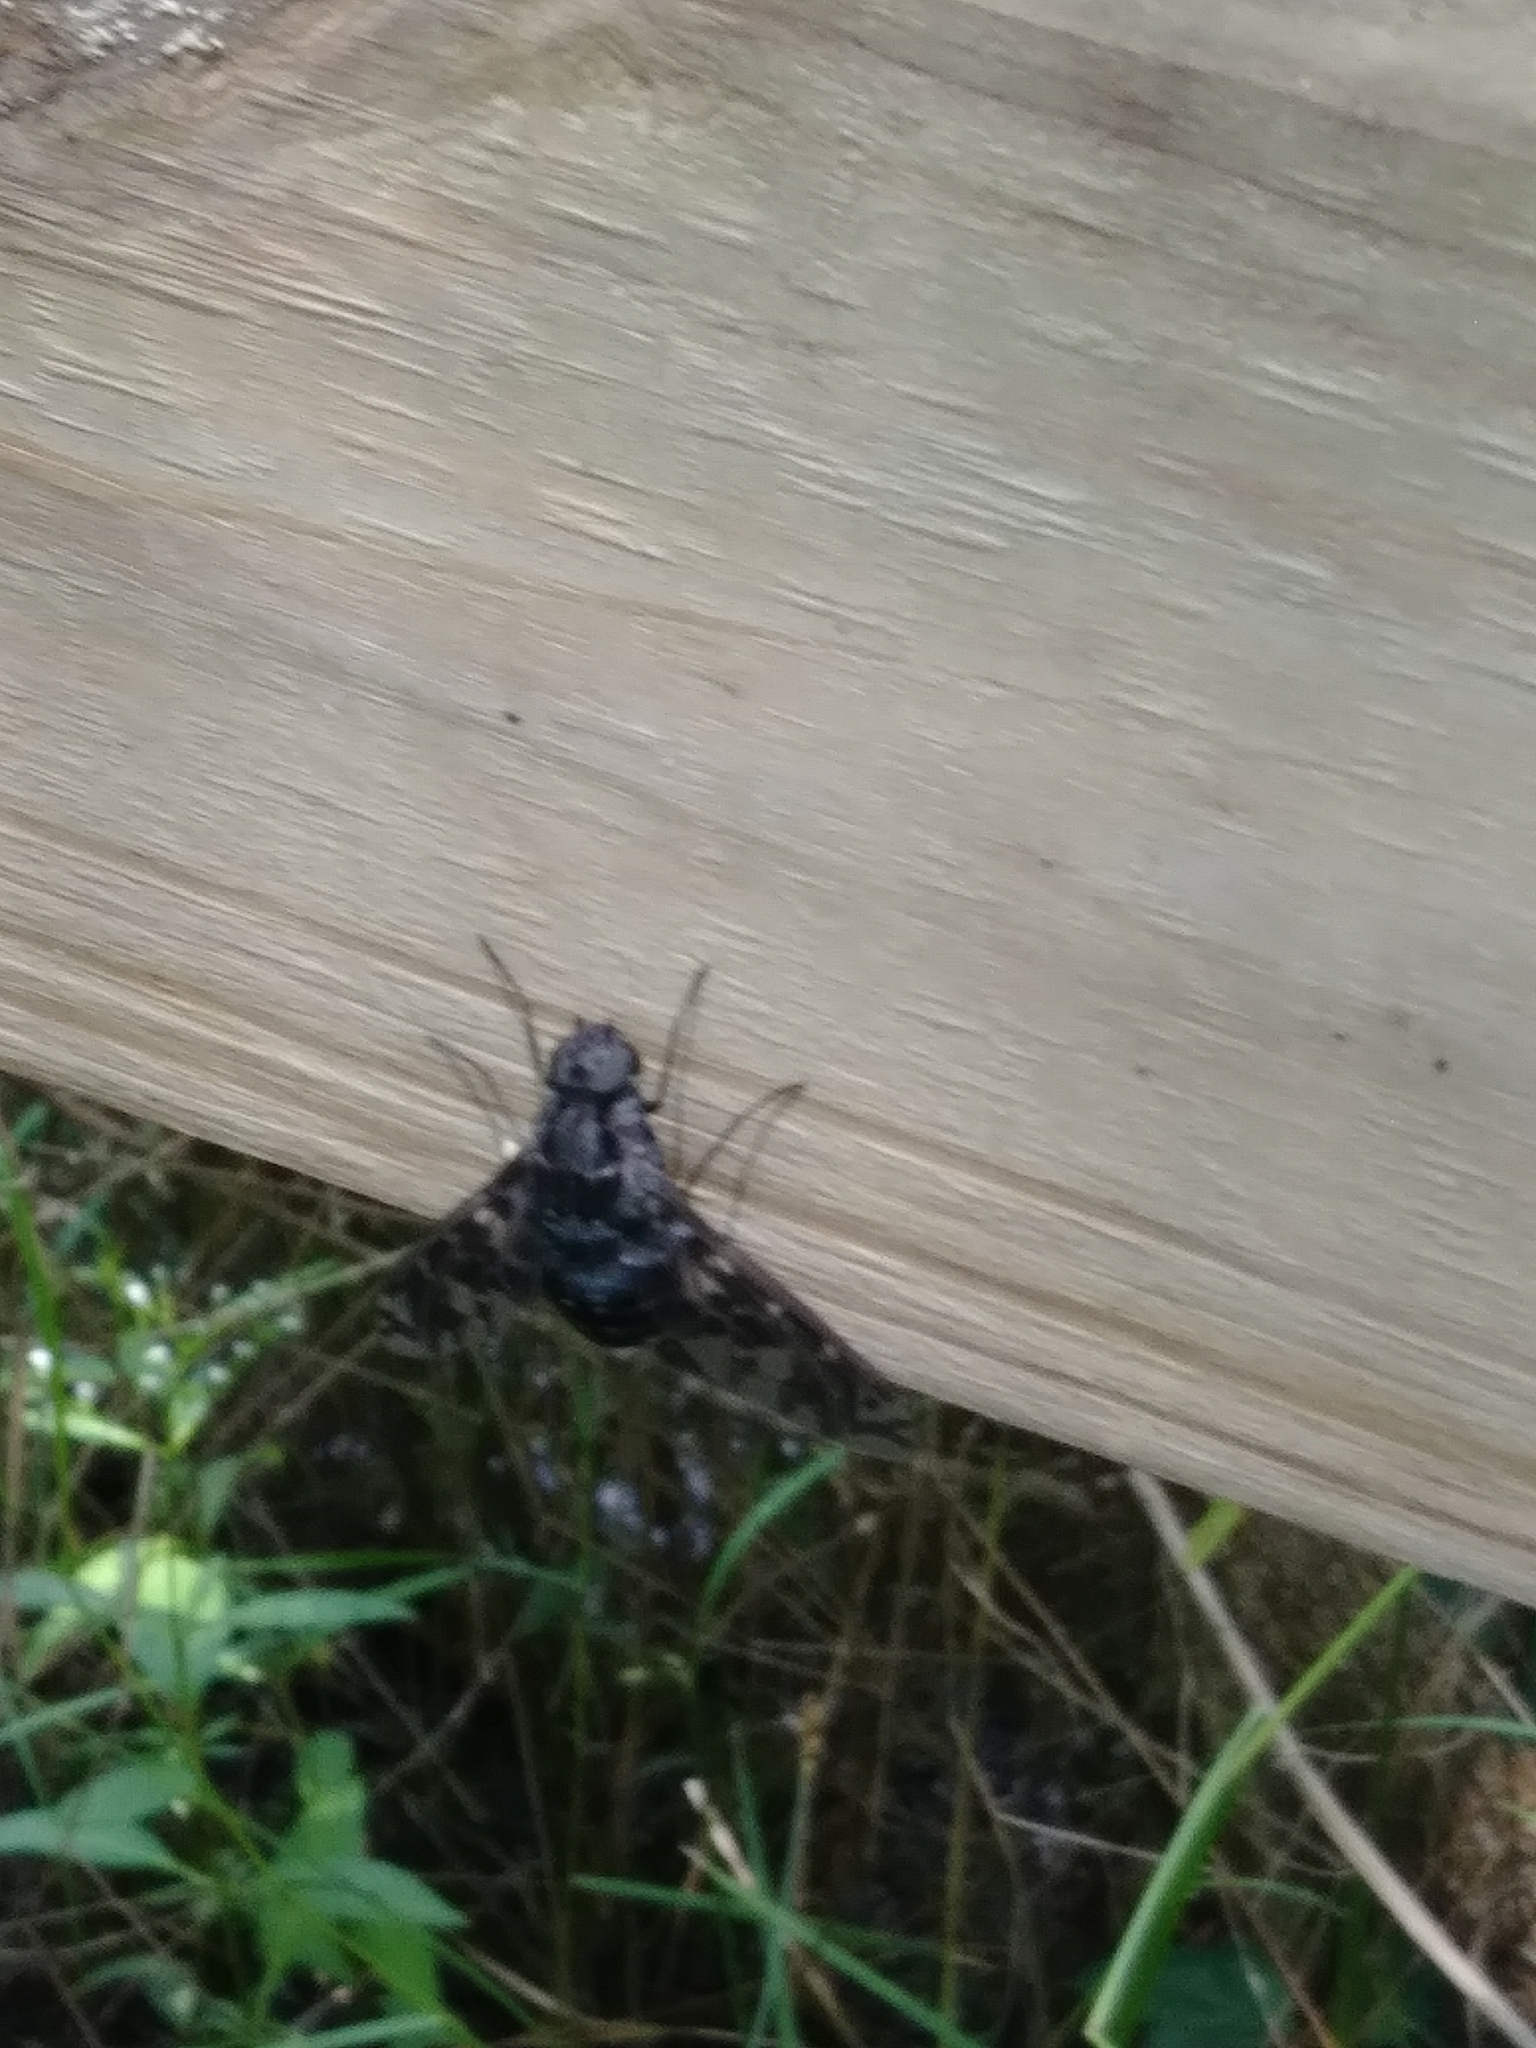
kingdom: Animalia
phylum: Arthropoda
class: Insecta
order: Diptera
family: Bombyliidae
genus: Xenox
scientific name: Xenox tigrinus
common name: Tiger bee fly
